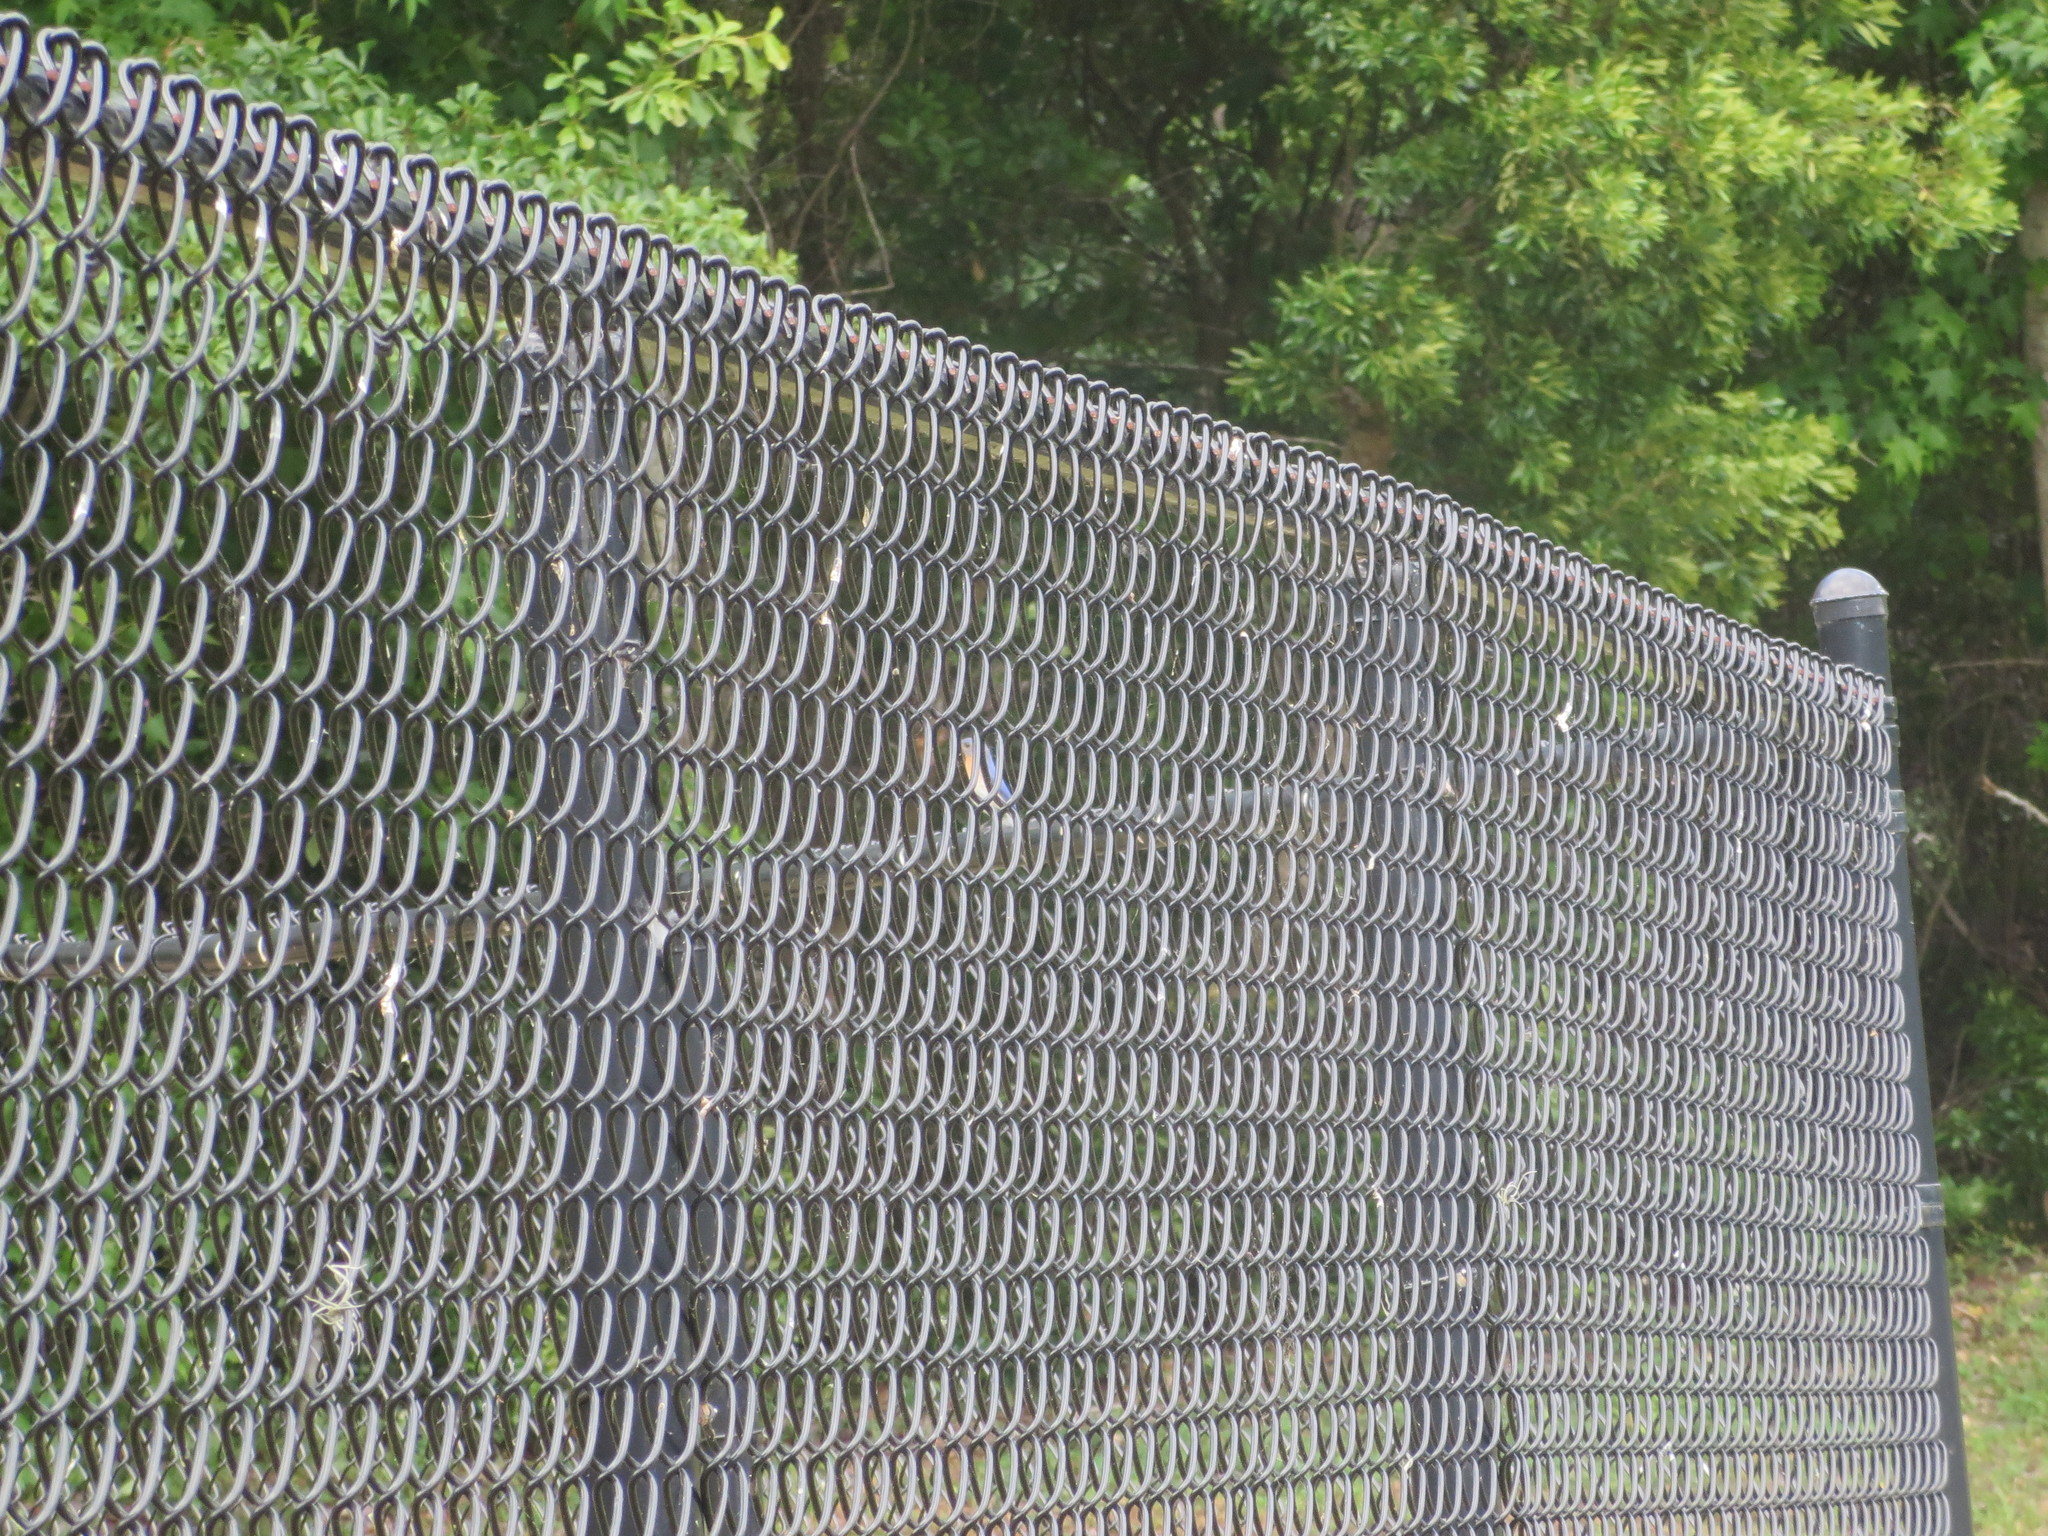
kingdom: Animalia
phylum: Chordata
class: Aves
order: Passeriformes
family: Turdidae
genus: Sialia
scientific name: Sialia sialis
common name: Eastern bluebird
